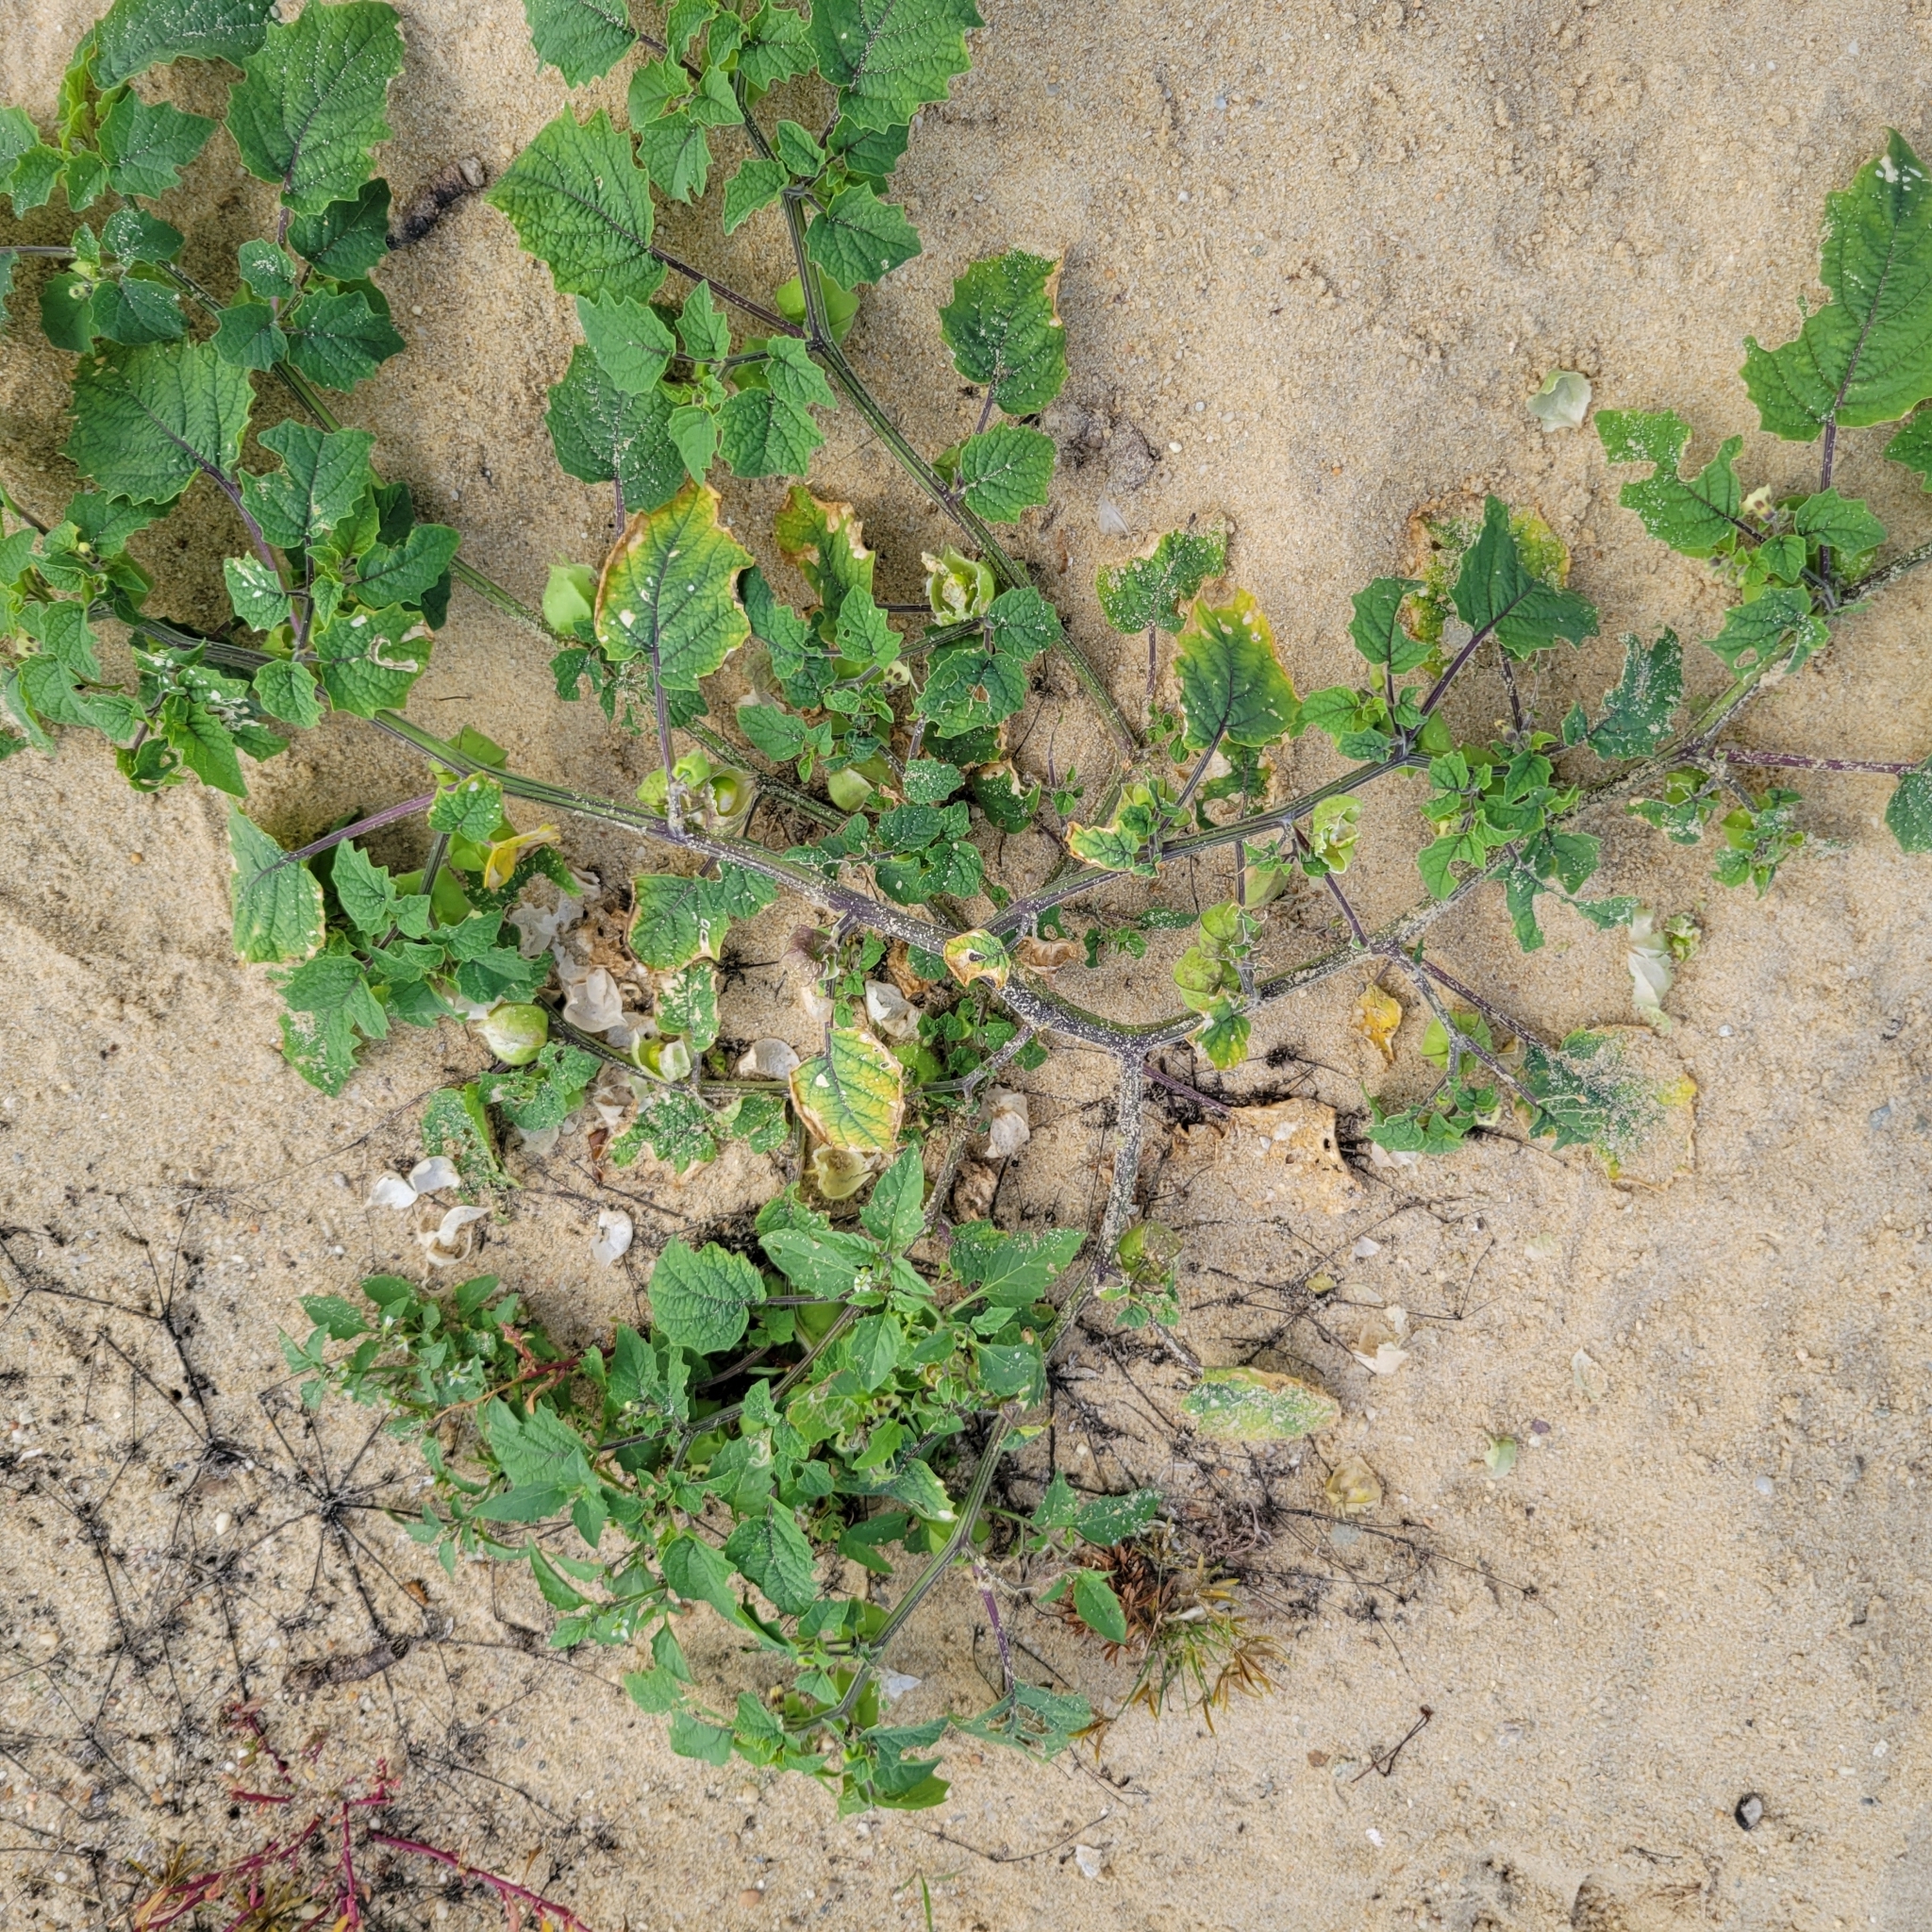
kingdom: Plantae
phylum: Tracheophyta
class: Magnoliopsida
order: Solanales
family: Solanaceae
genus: Physalis
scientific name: Physalis grisea
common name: Dwarf cape-gooseberry
